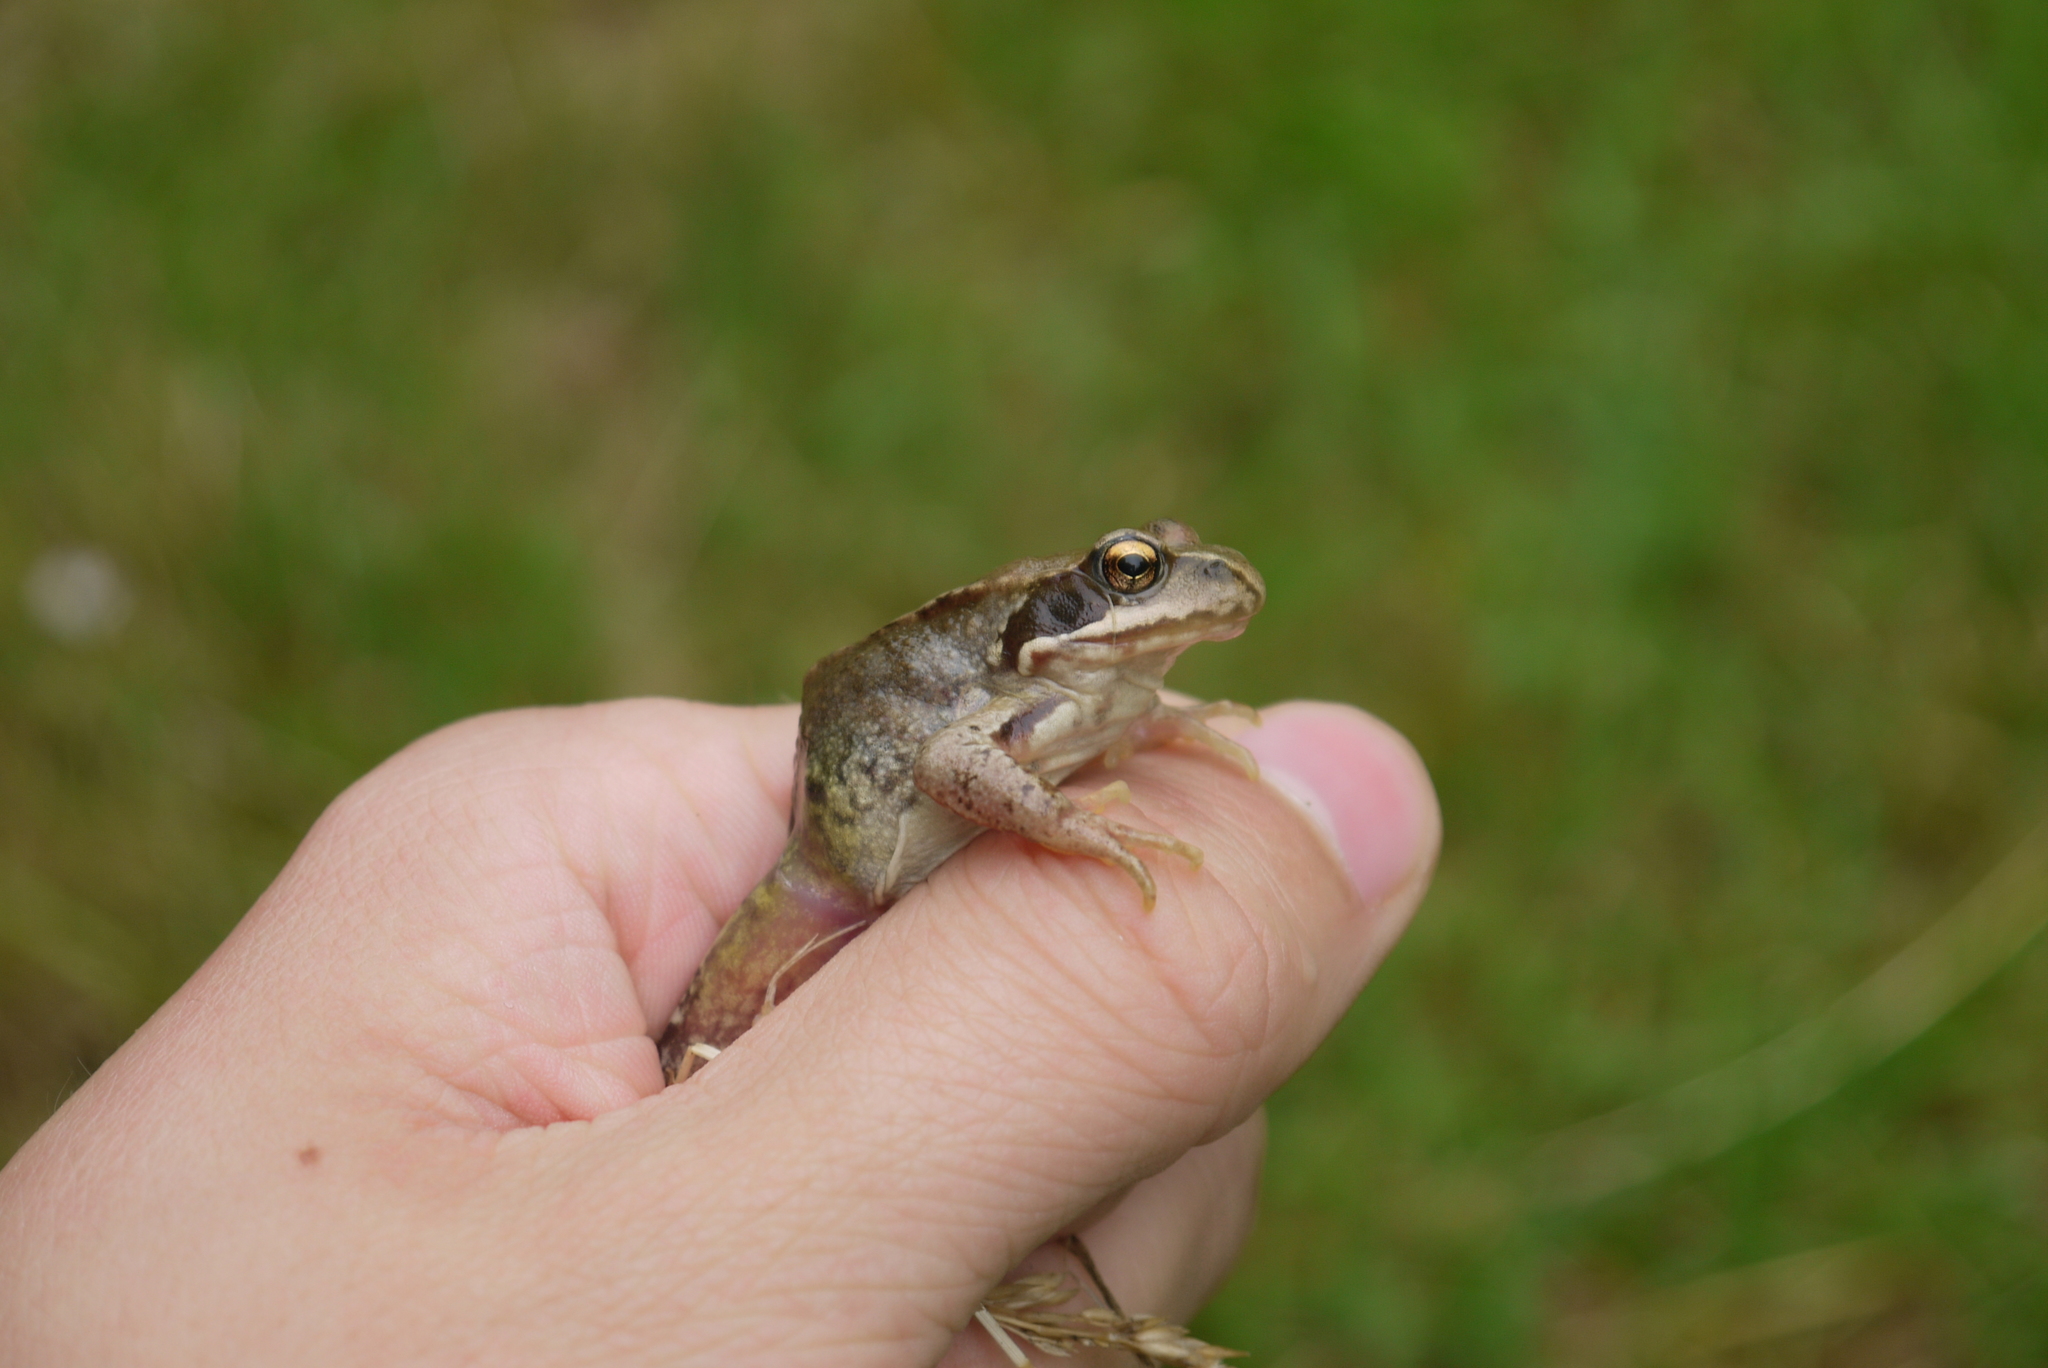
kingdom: Animalia
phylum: Chordata
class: Amphibia
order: Anura
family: Ranidae
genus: Rana
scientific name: Rana temporaria
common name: Common frog
